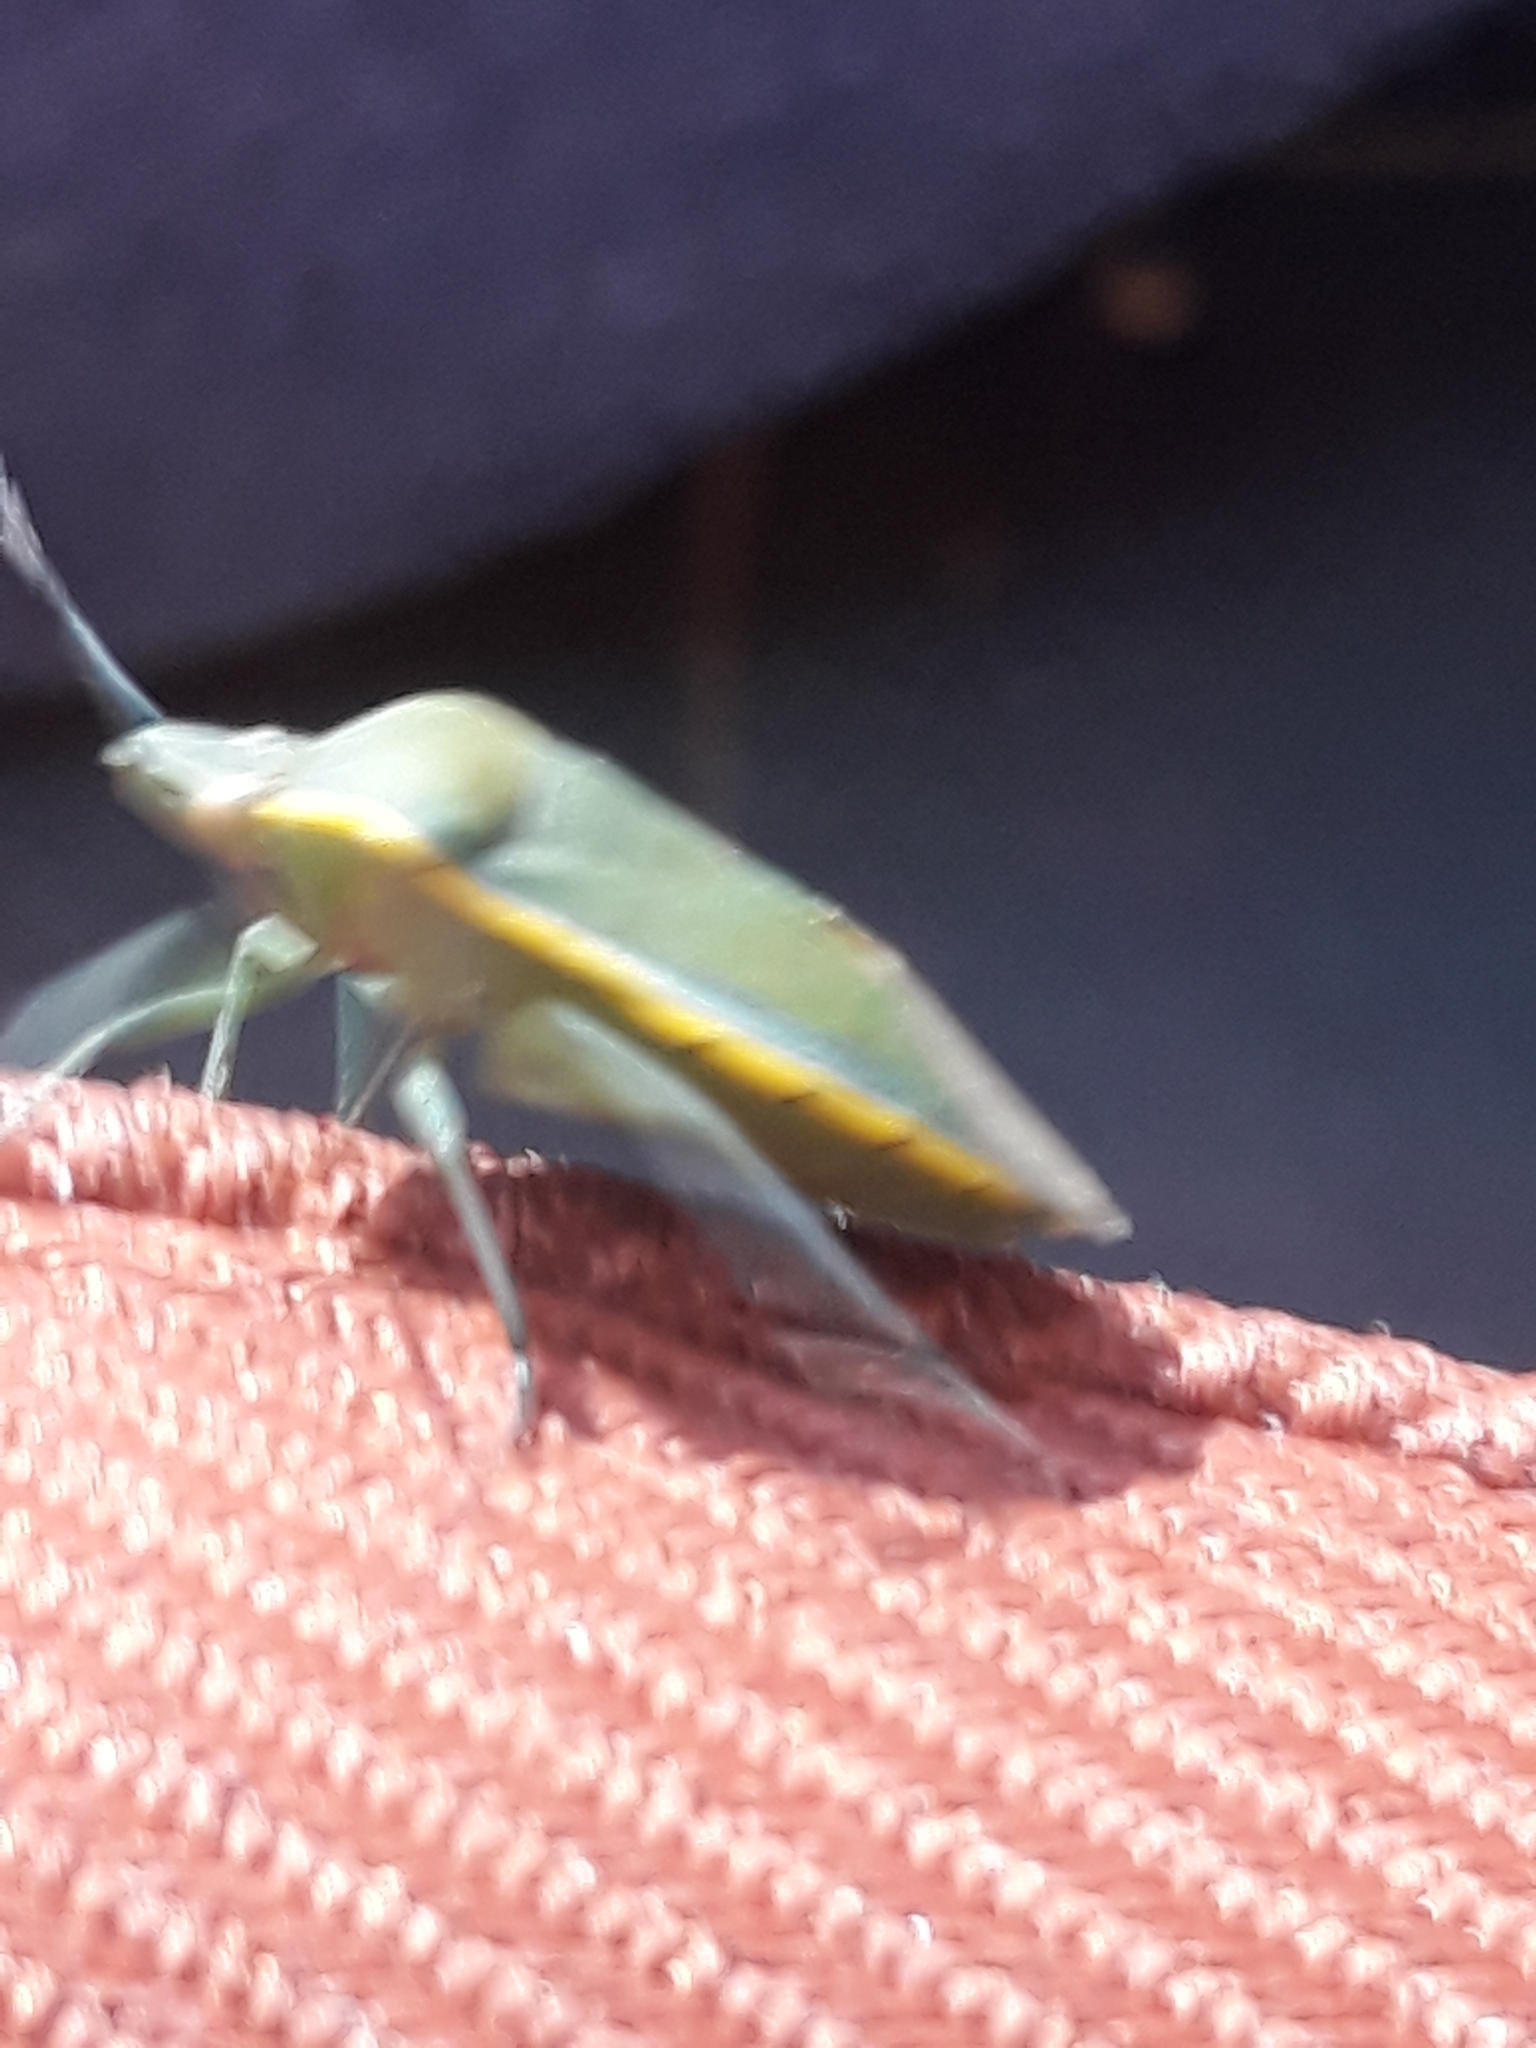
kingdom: Animalia
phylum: Arthropoda
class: Insecta
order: Hemiptera
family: Pentatomidae
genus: Brachynema
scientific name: Brachynema germarii
